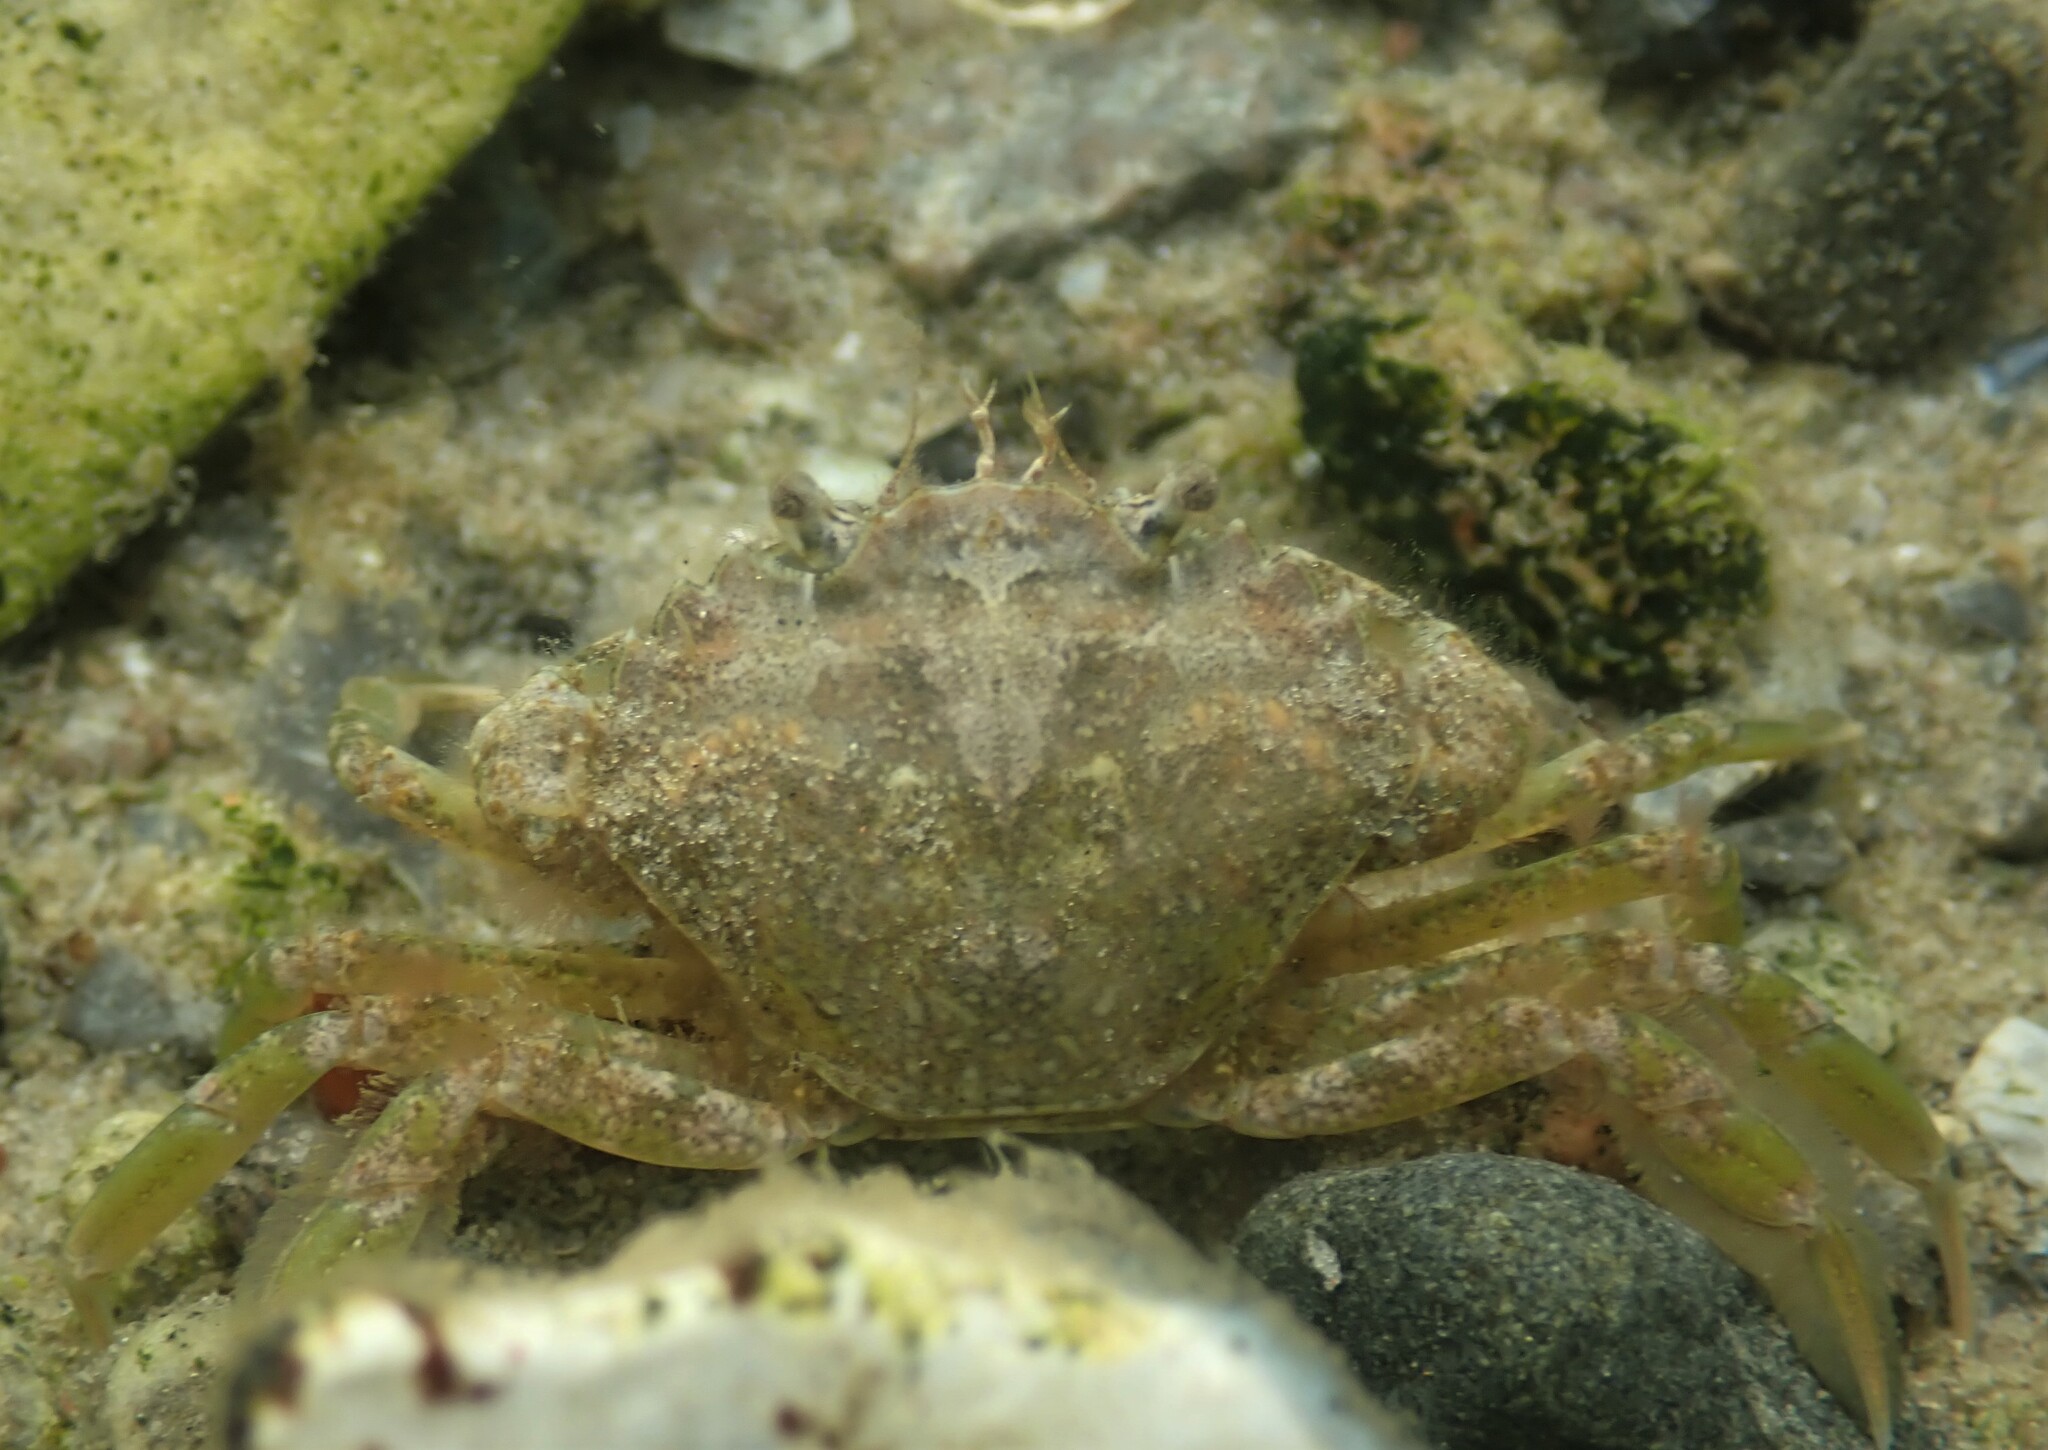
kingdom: Animalia
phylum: Arthropoda
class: Malacostraca
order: Decapoda
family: Carcinidae
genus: Carcinus
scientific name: Carcinus maenas
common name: European green crab
